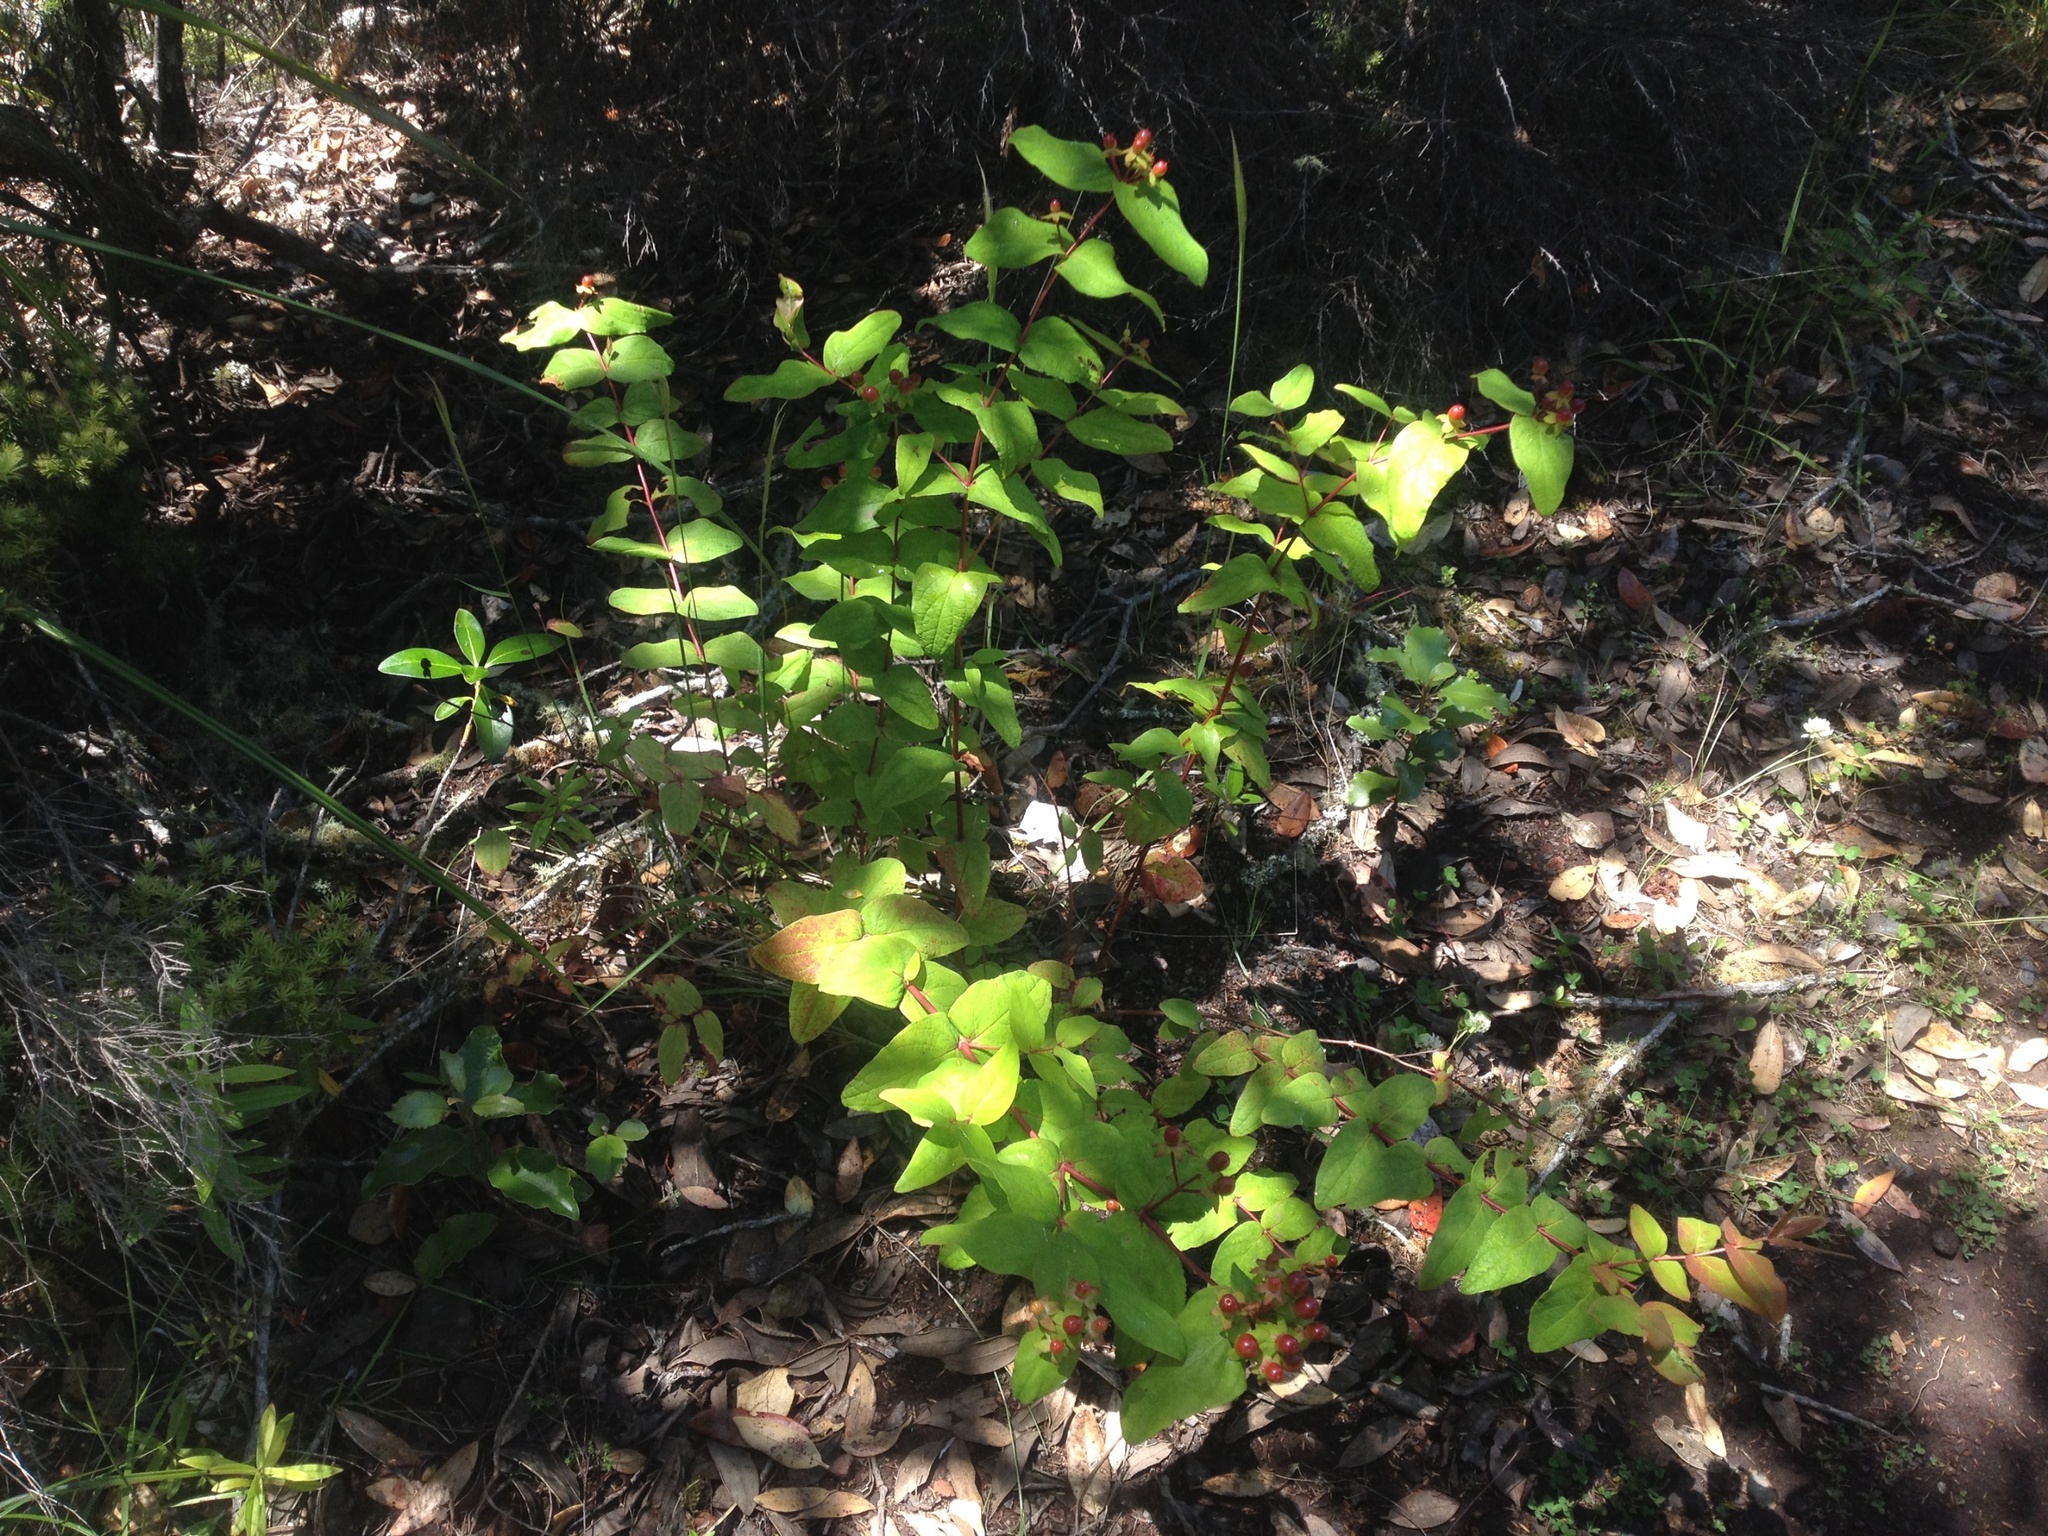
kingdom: Plantae
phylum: Tracheophyta
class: Magnoliopsida
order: Malpighiales
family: Hypericaceae
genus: Hypericum
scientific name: Hypericum androsaemum
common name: Sweet-amber
